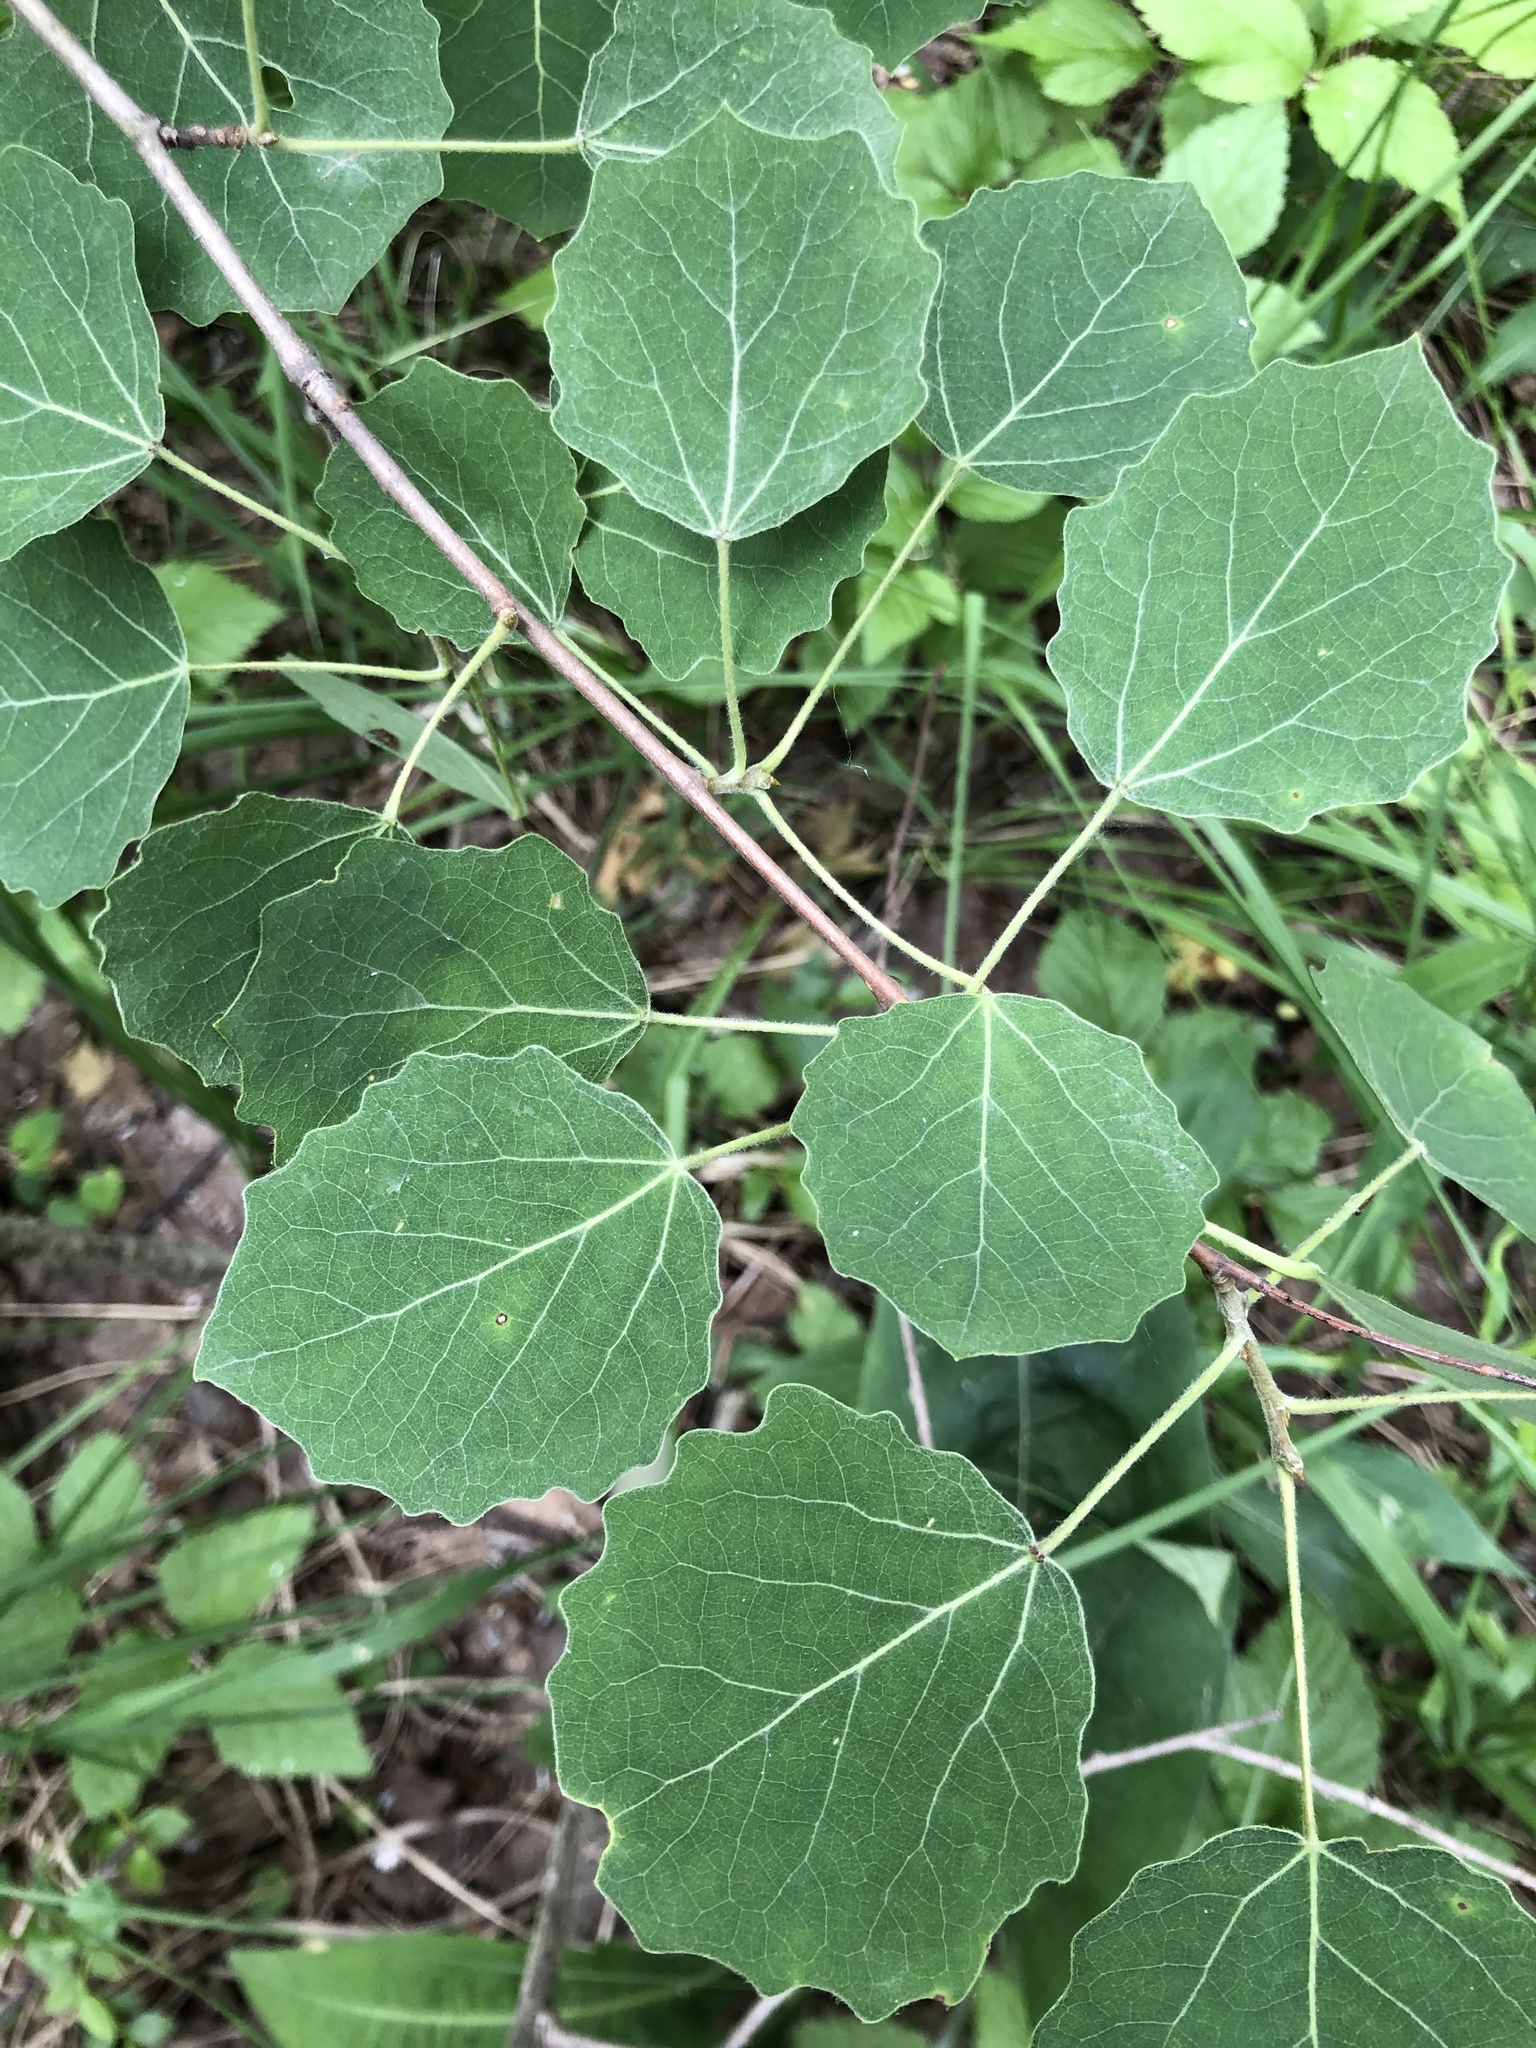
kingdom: Plantae
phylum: Tracheophyta
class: Magnoliopsida
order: Malpighiales
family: Salicaceae
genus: Populus
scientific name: Populus tremula
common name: European aspen
